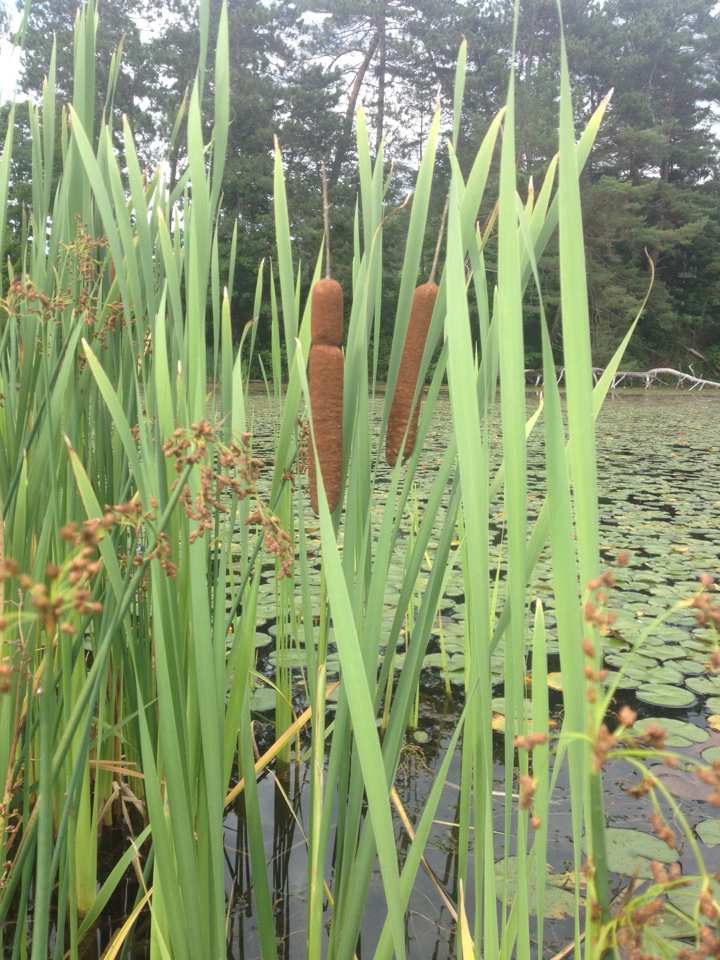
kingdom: Plantae
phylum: Tracheophyta
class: Liliopsida
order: Poales
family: Typhaceae
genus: Typha
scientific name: Typha latifolia
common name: Broadleaf cattail
